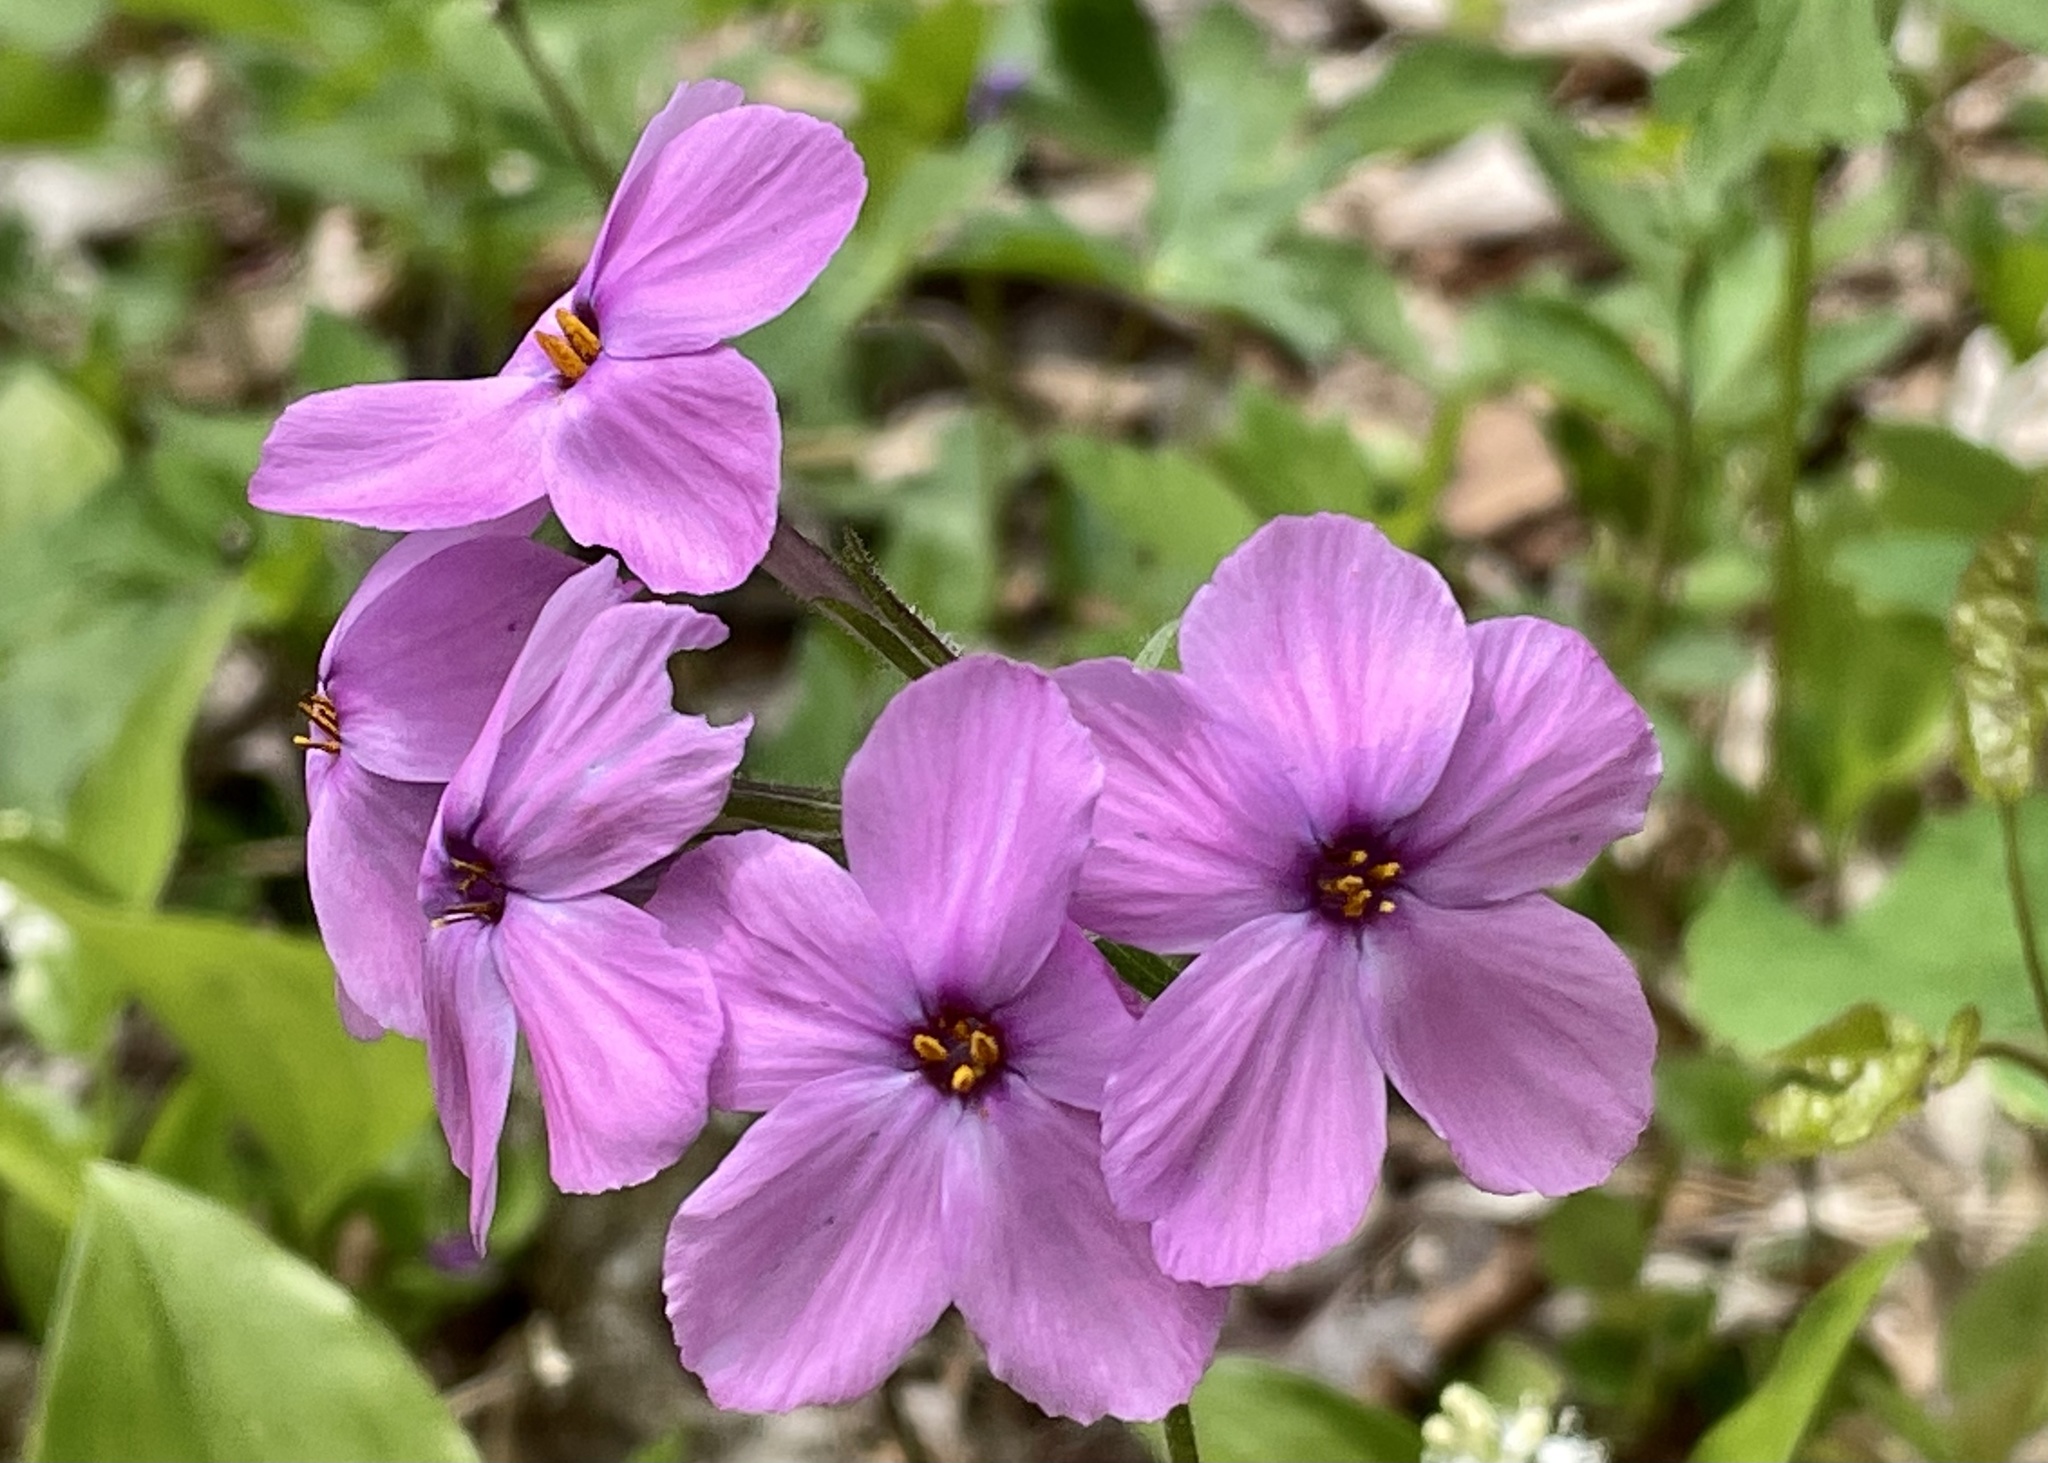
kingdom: Plantae
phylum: Tracheophyta
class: Magnoliopsida
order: Ericales
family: Polemoniaceae
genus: Phlox
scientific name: Phlox stolonifera
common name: Creeping phlox
